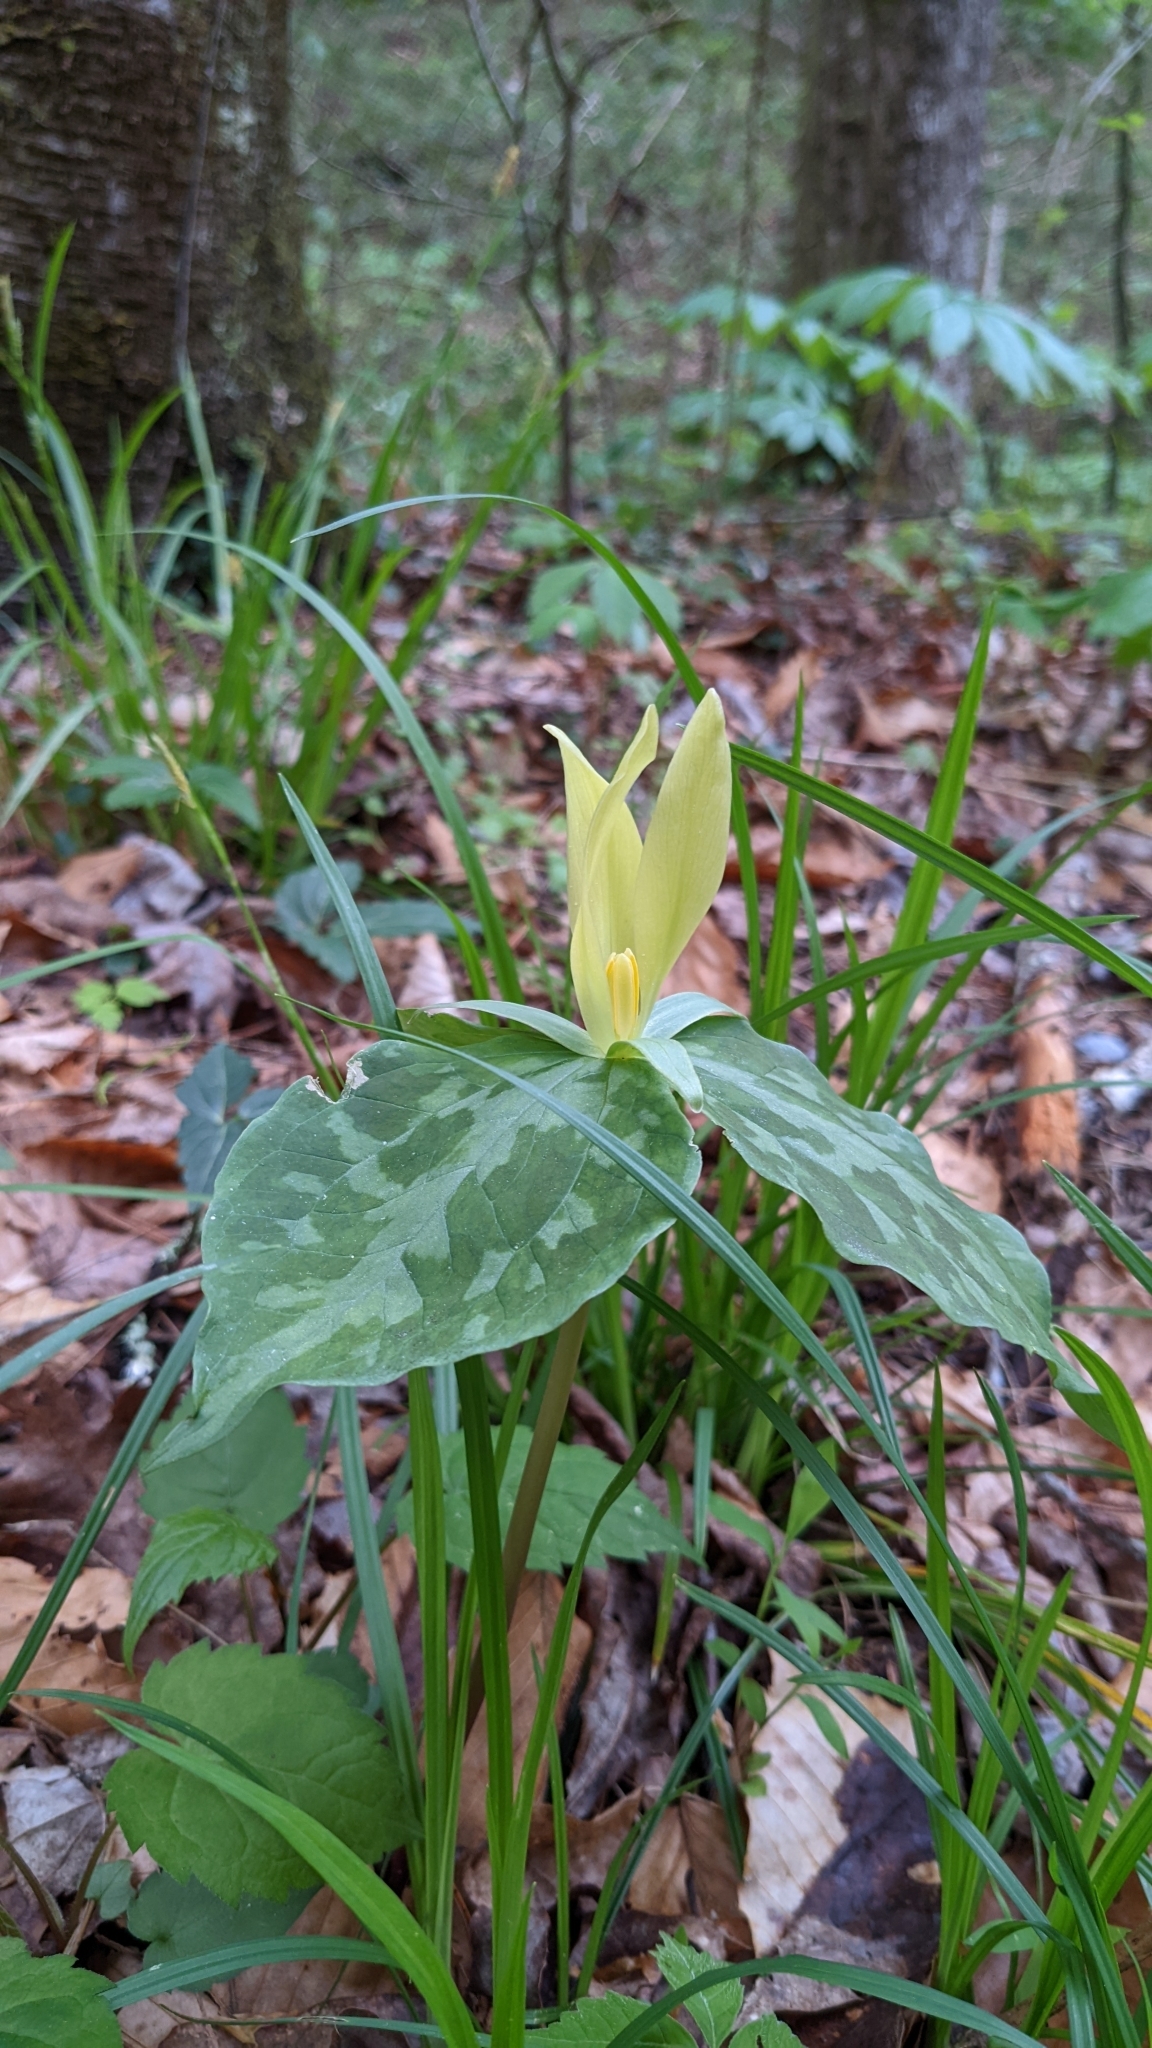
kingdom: Plantae
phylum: Tracheophyta
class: Liliopsida
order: Liliales
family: Melanthiaceae
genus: Trillium
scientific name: Trillium luteum
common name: Wax trillium
